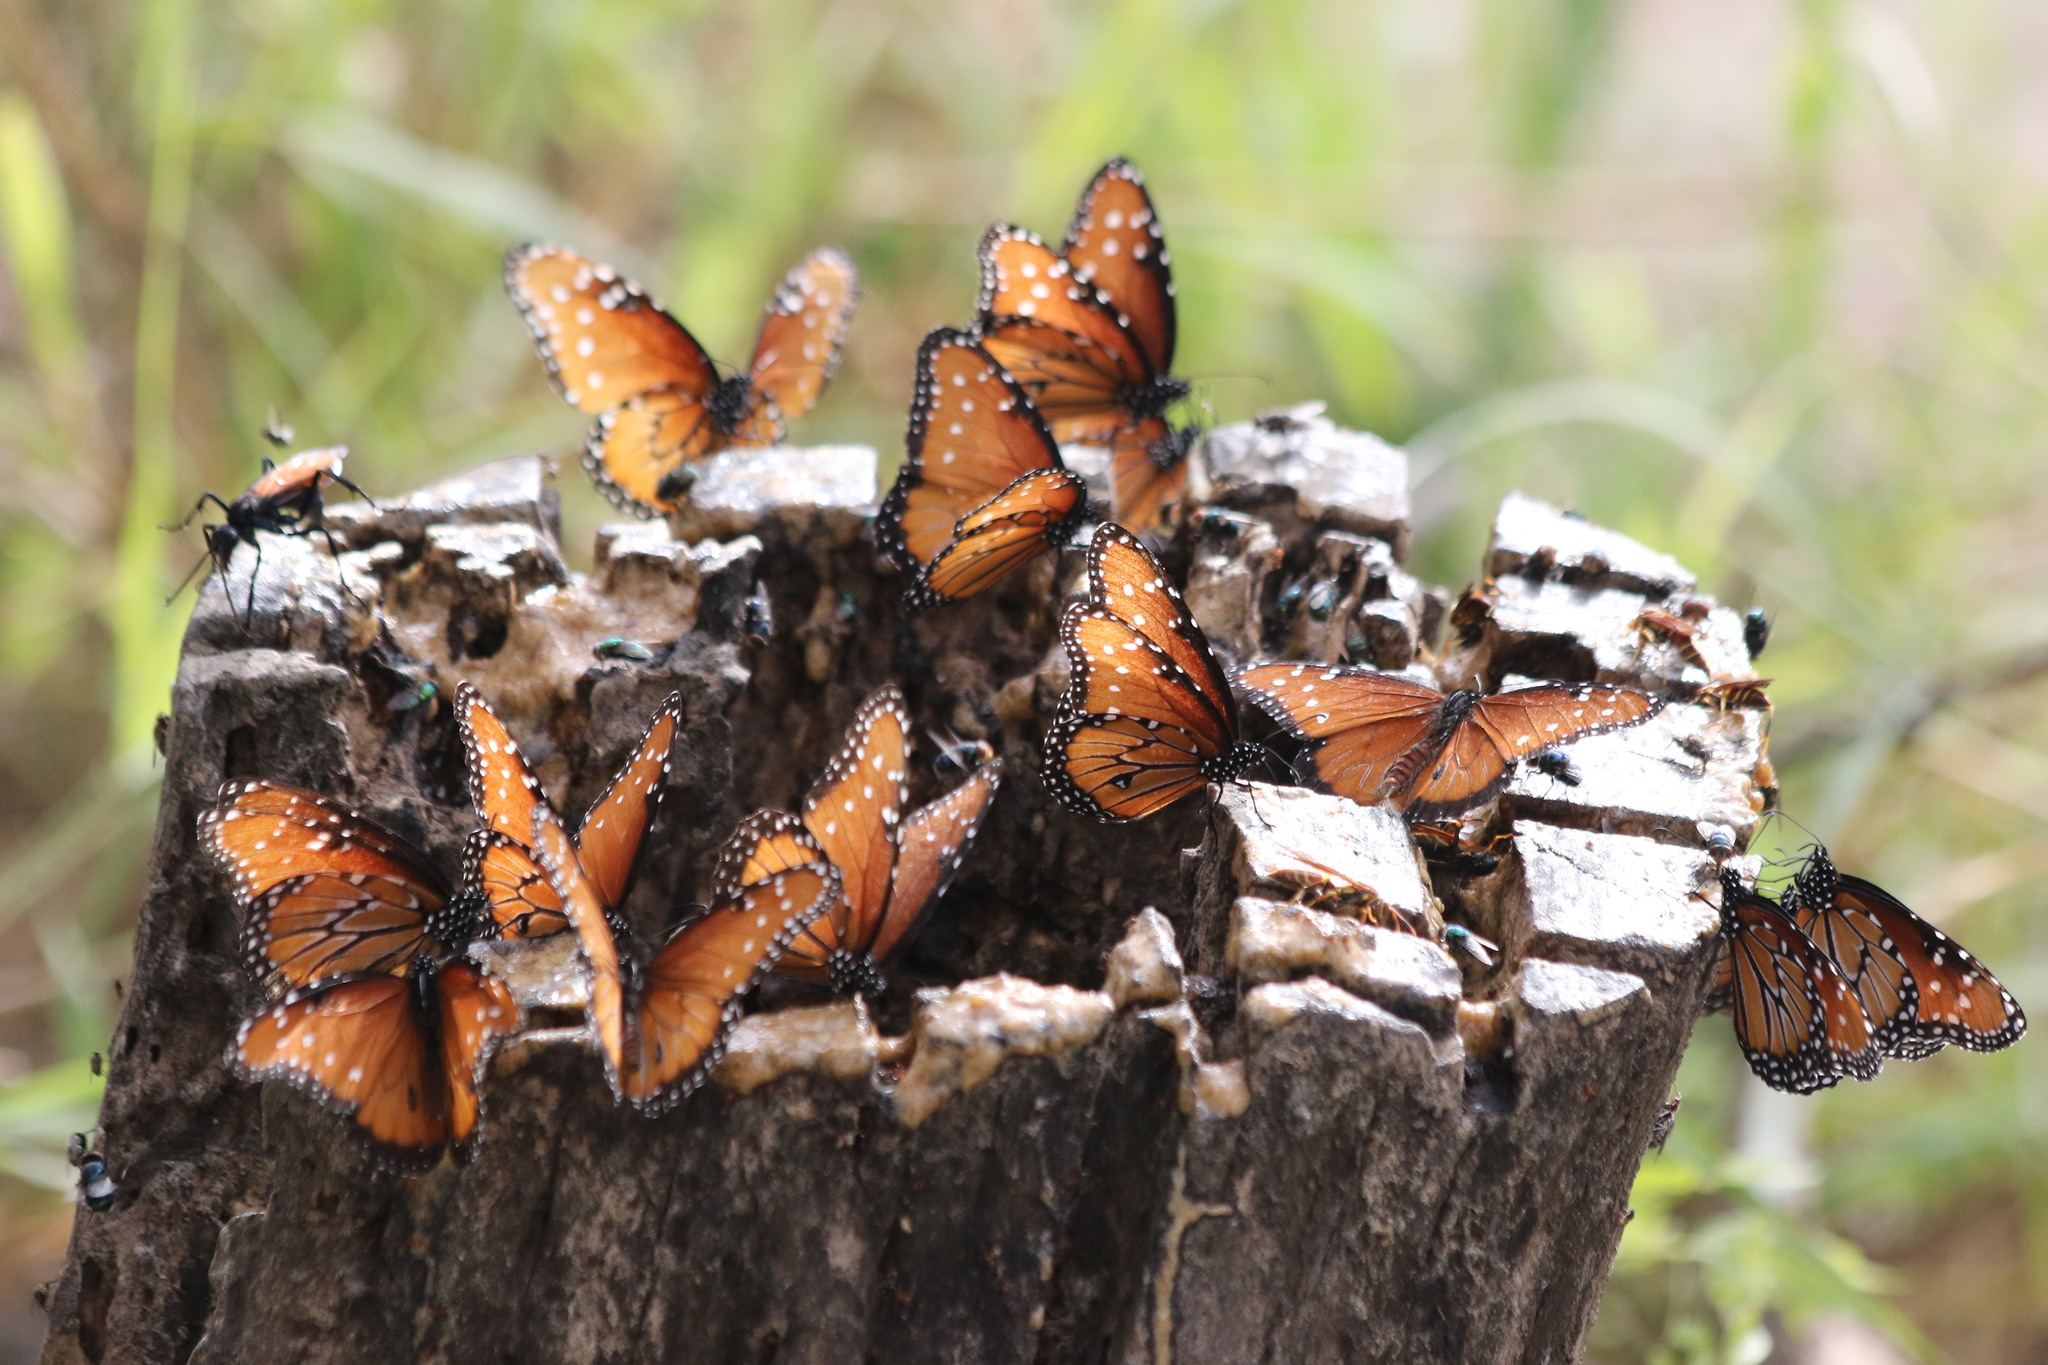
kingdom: Animalia
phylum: Arthropoda
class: Insecta
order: Lepidoptera
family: Nymphalidae
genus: Danaus
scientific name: Danaus gilippus
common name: Queen
